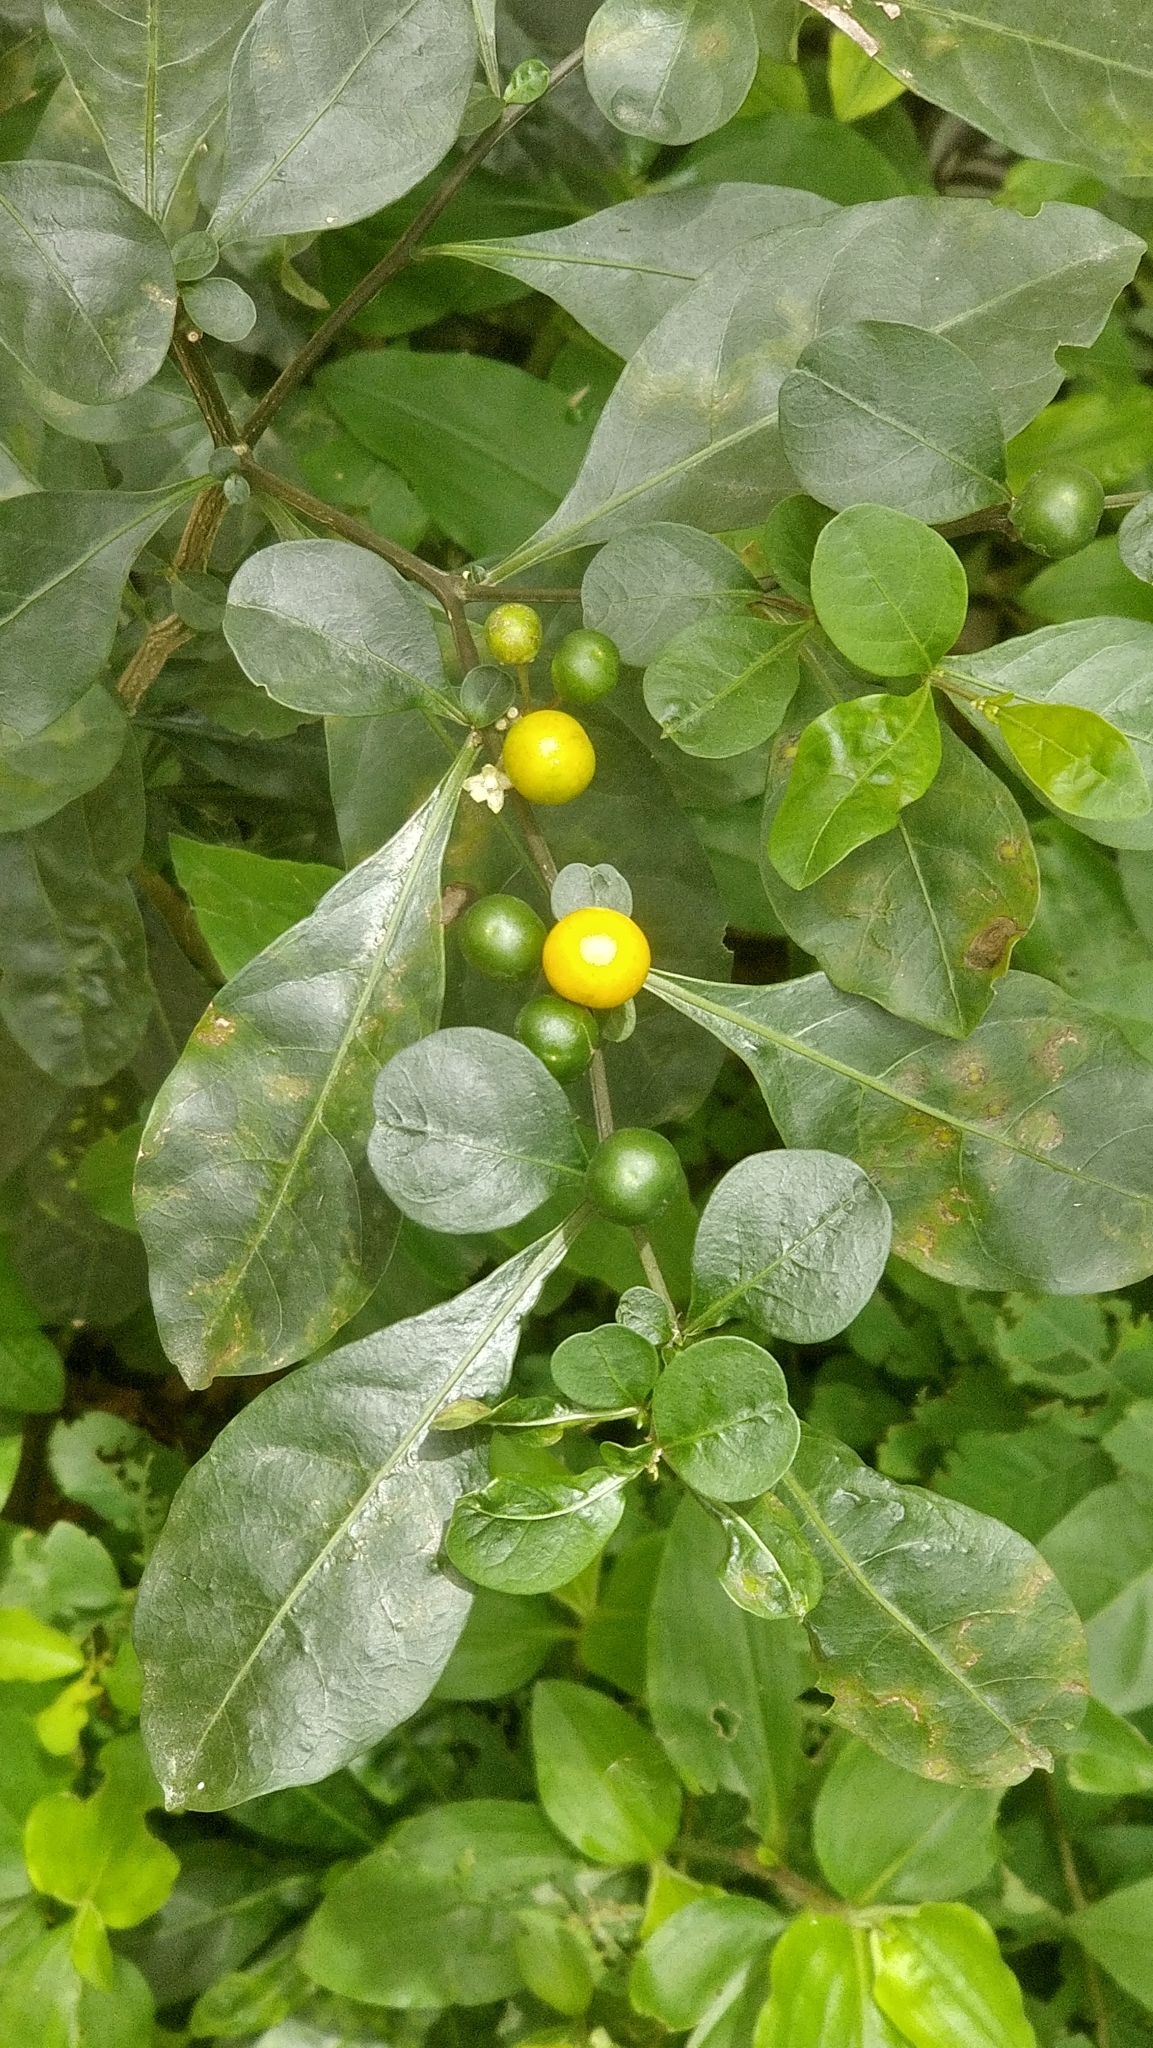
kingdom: Plantae
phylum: Tracheophyta
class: Magnoliopsida
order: Solanales
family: Solanaceae
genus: Solanum
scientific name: Solanum diphyllum
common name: Twoleaf nightshade
